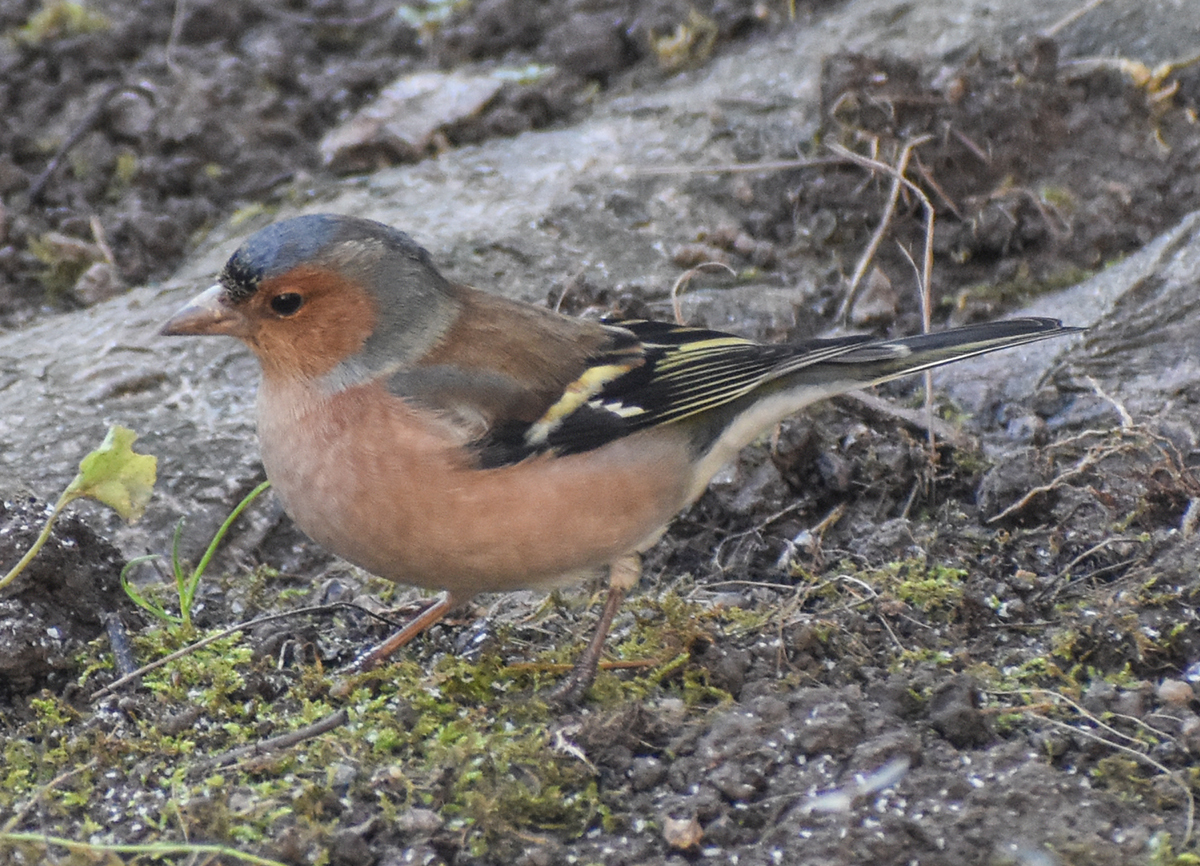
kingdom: Animalia
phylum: Chordata
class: Aves
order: Passeriformes
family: Fringillidae
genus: Fringilla
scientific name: Fringilla coelebs
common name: Common chaffinch
